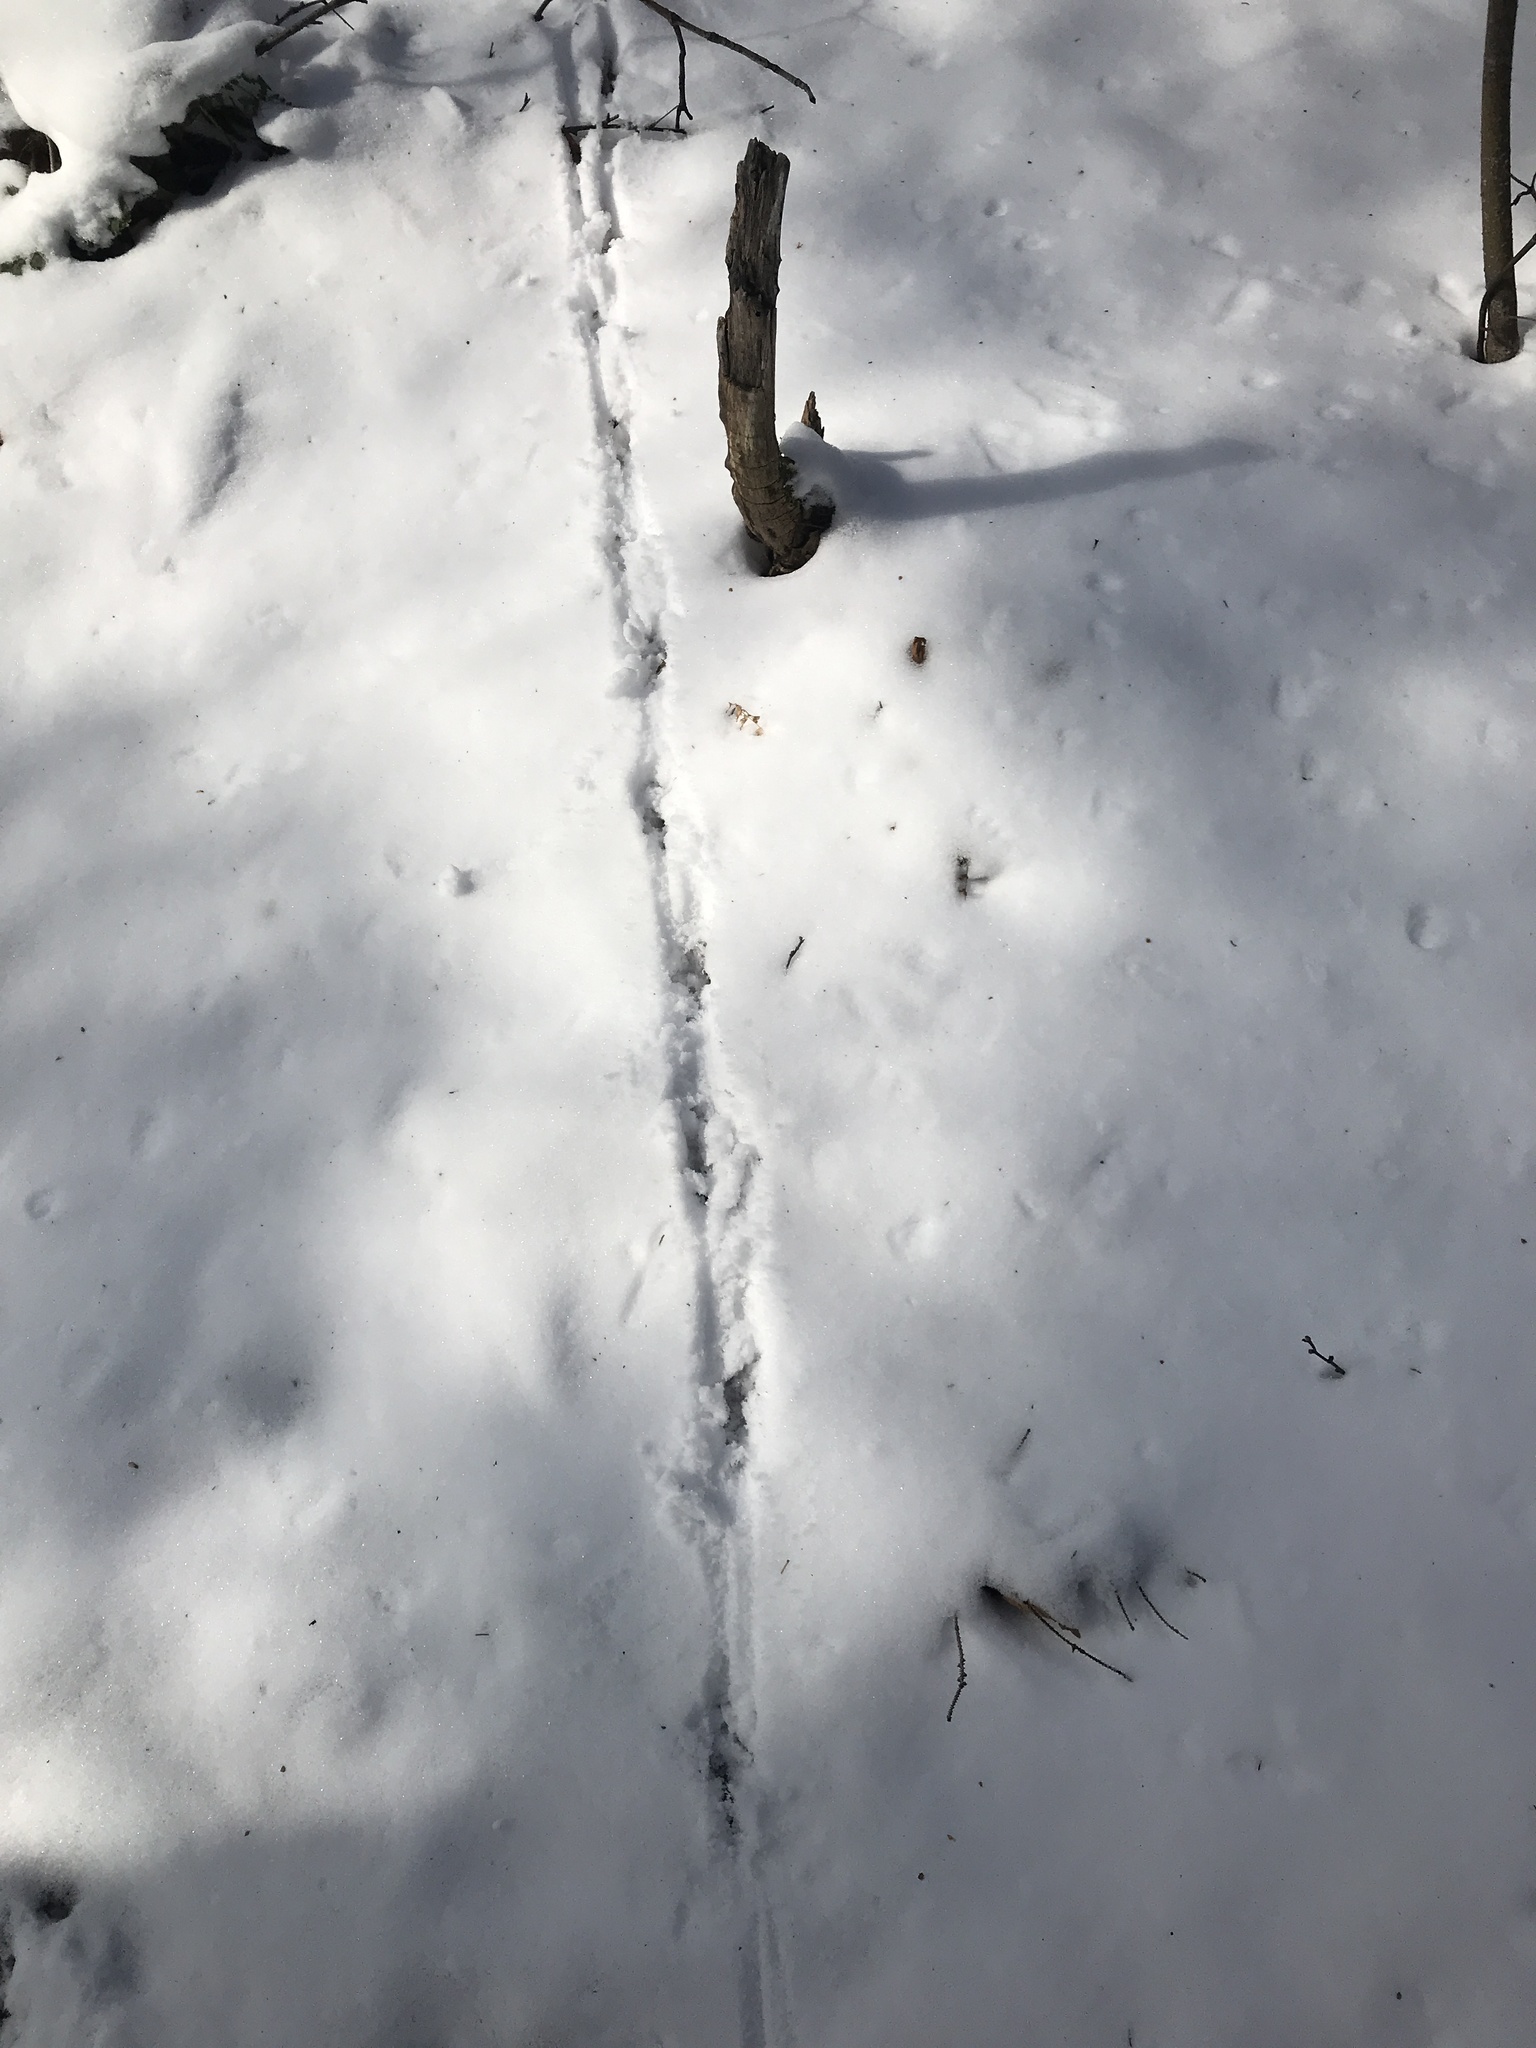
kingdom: Animalia
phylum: Chordata
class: Aves
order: Galliformes
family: Phasianidae
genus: Bonasa
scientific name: Bonasa umbellus
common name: Ruffed grouse
